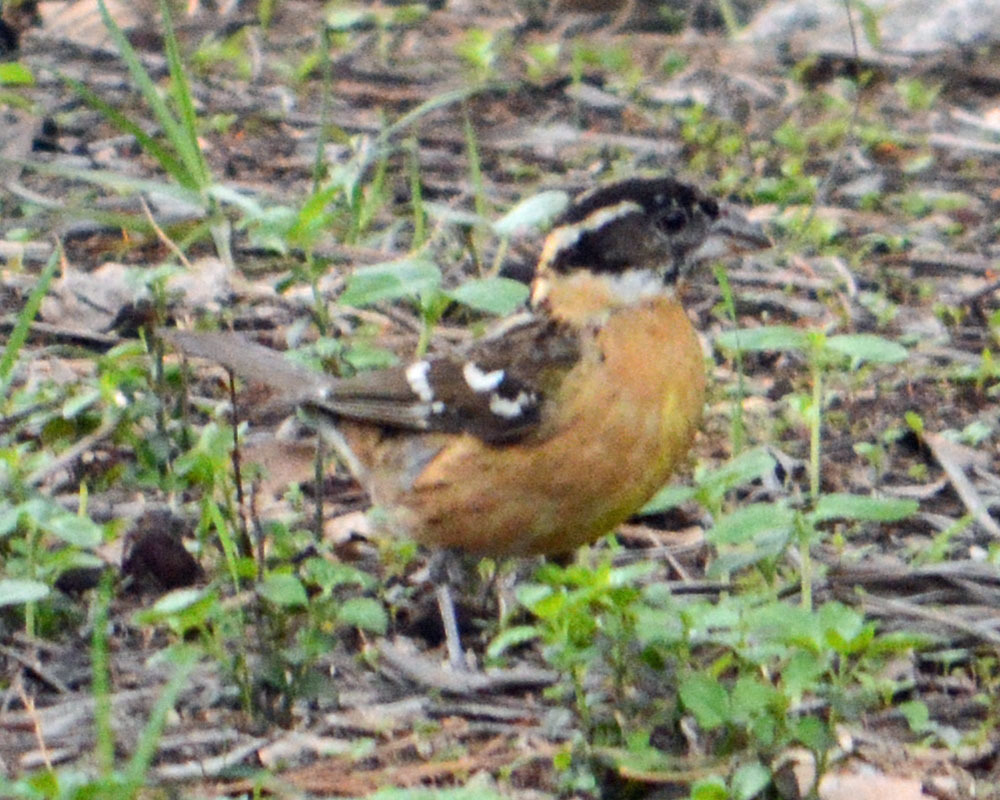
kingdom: Animalia
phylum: Chordata
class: Aves
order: Passeriformes
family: Cardinalidae
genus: Pheucticus
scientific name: Pheucticus melanocephalus
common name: Black-headed grosbeak
